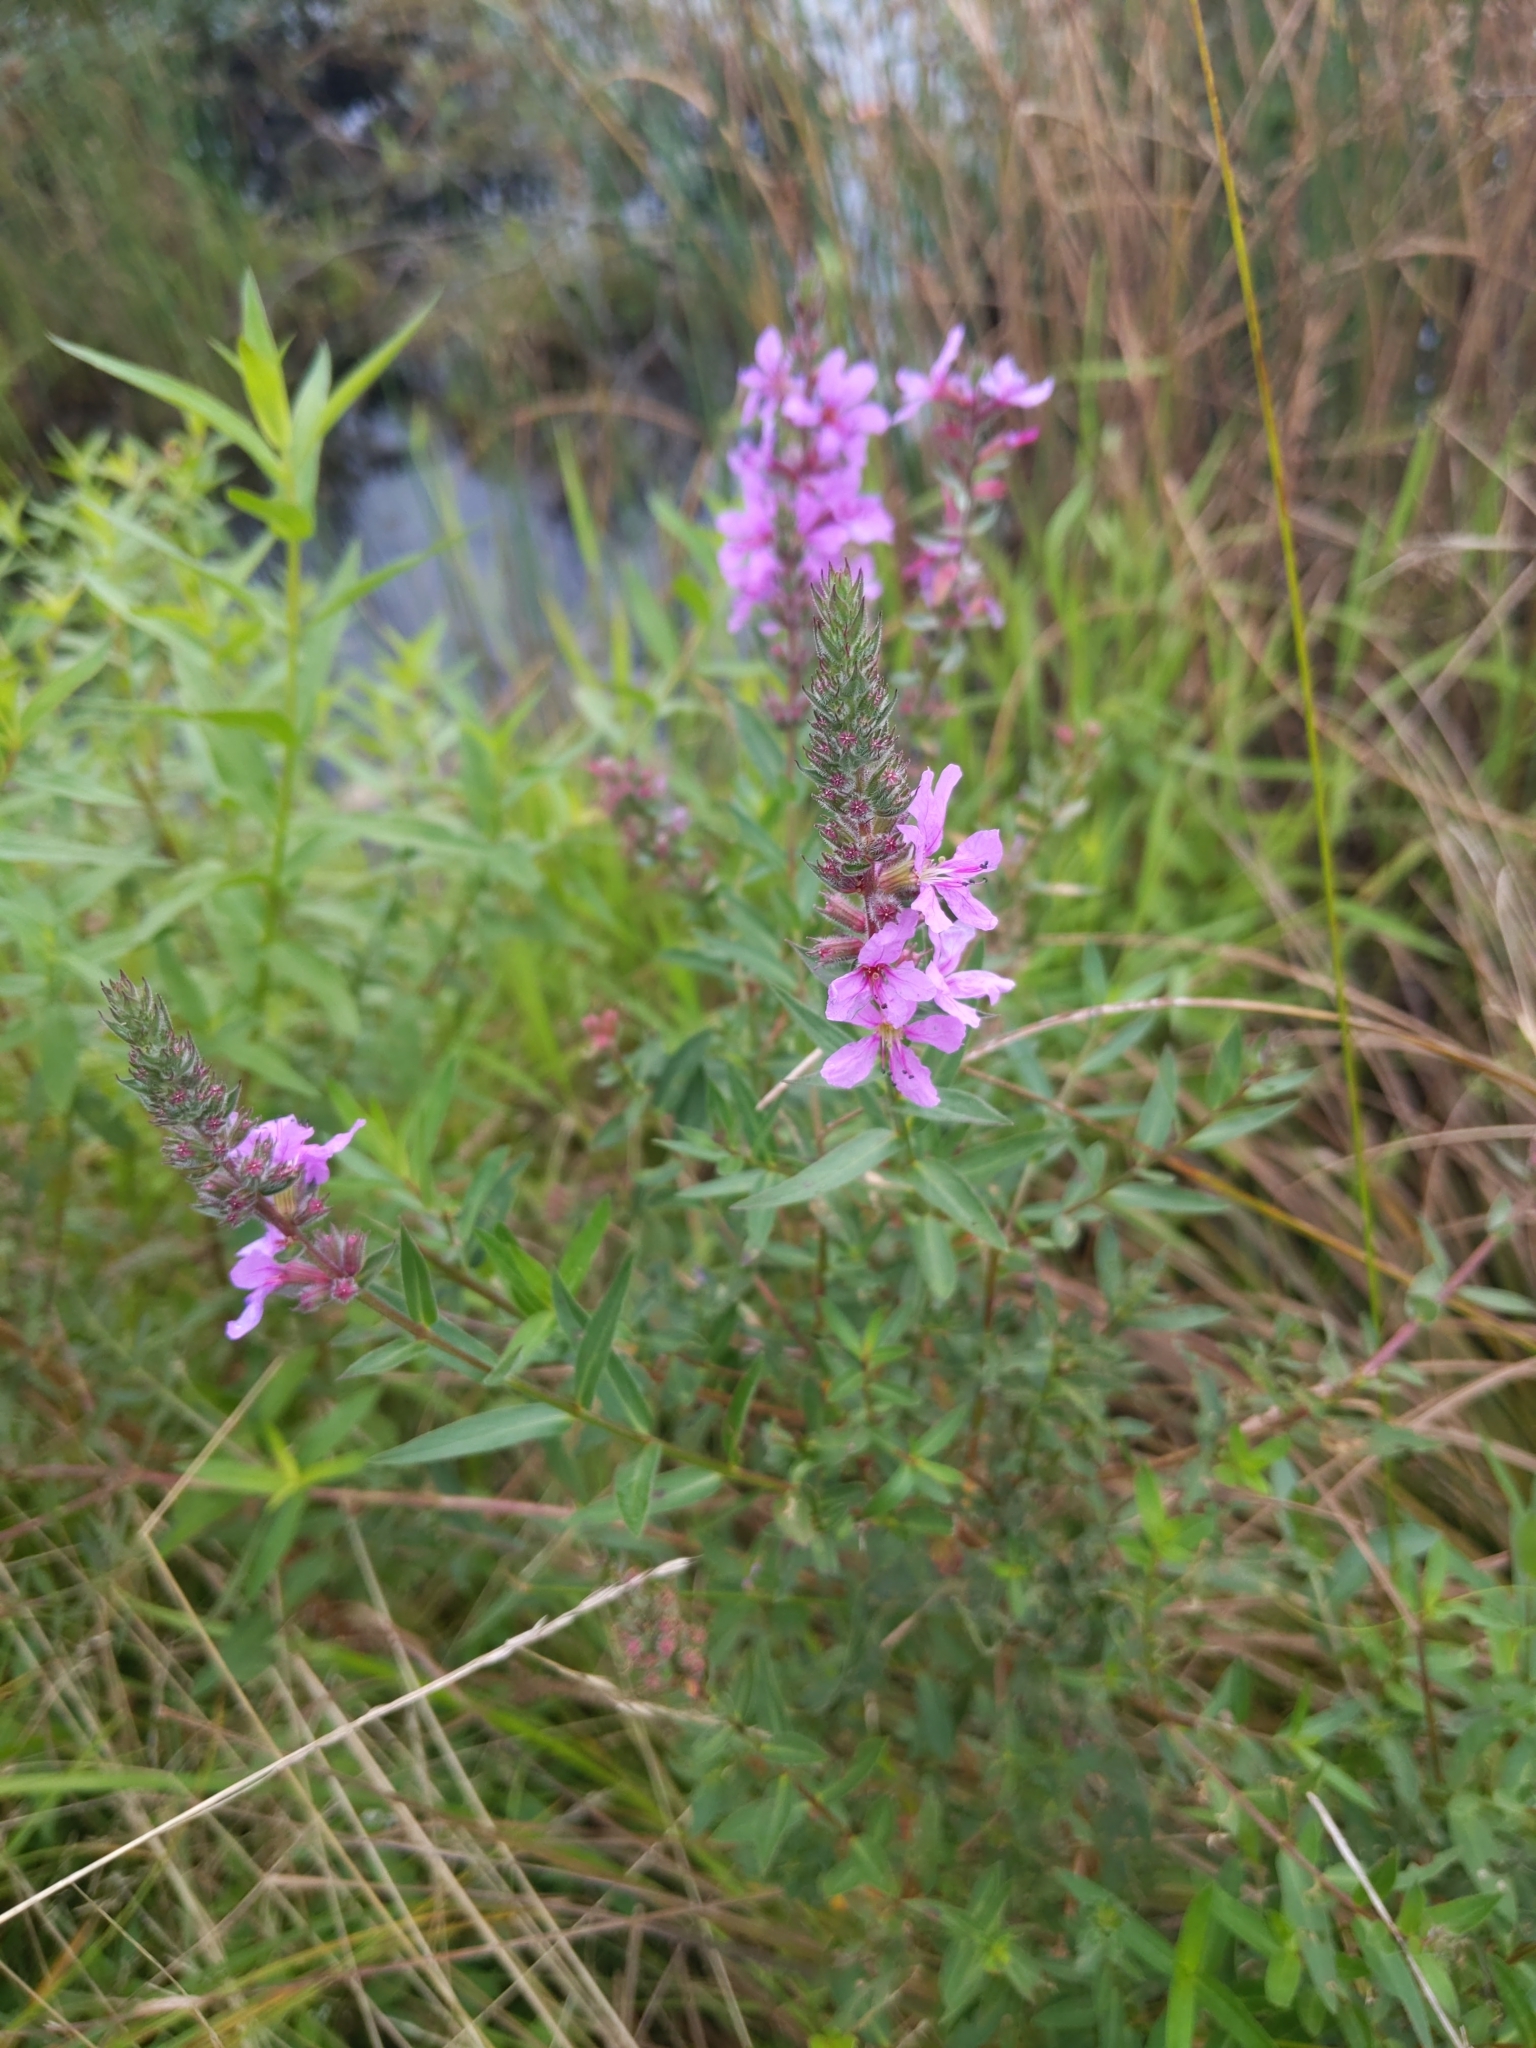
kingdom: Plantae
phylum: Tracheophyta
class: Magnoliopsida
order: Myrtales
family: Lythraceae
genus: Lythrum
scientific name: Lythrum salicaria
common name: Purple loosestrife
